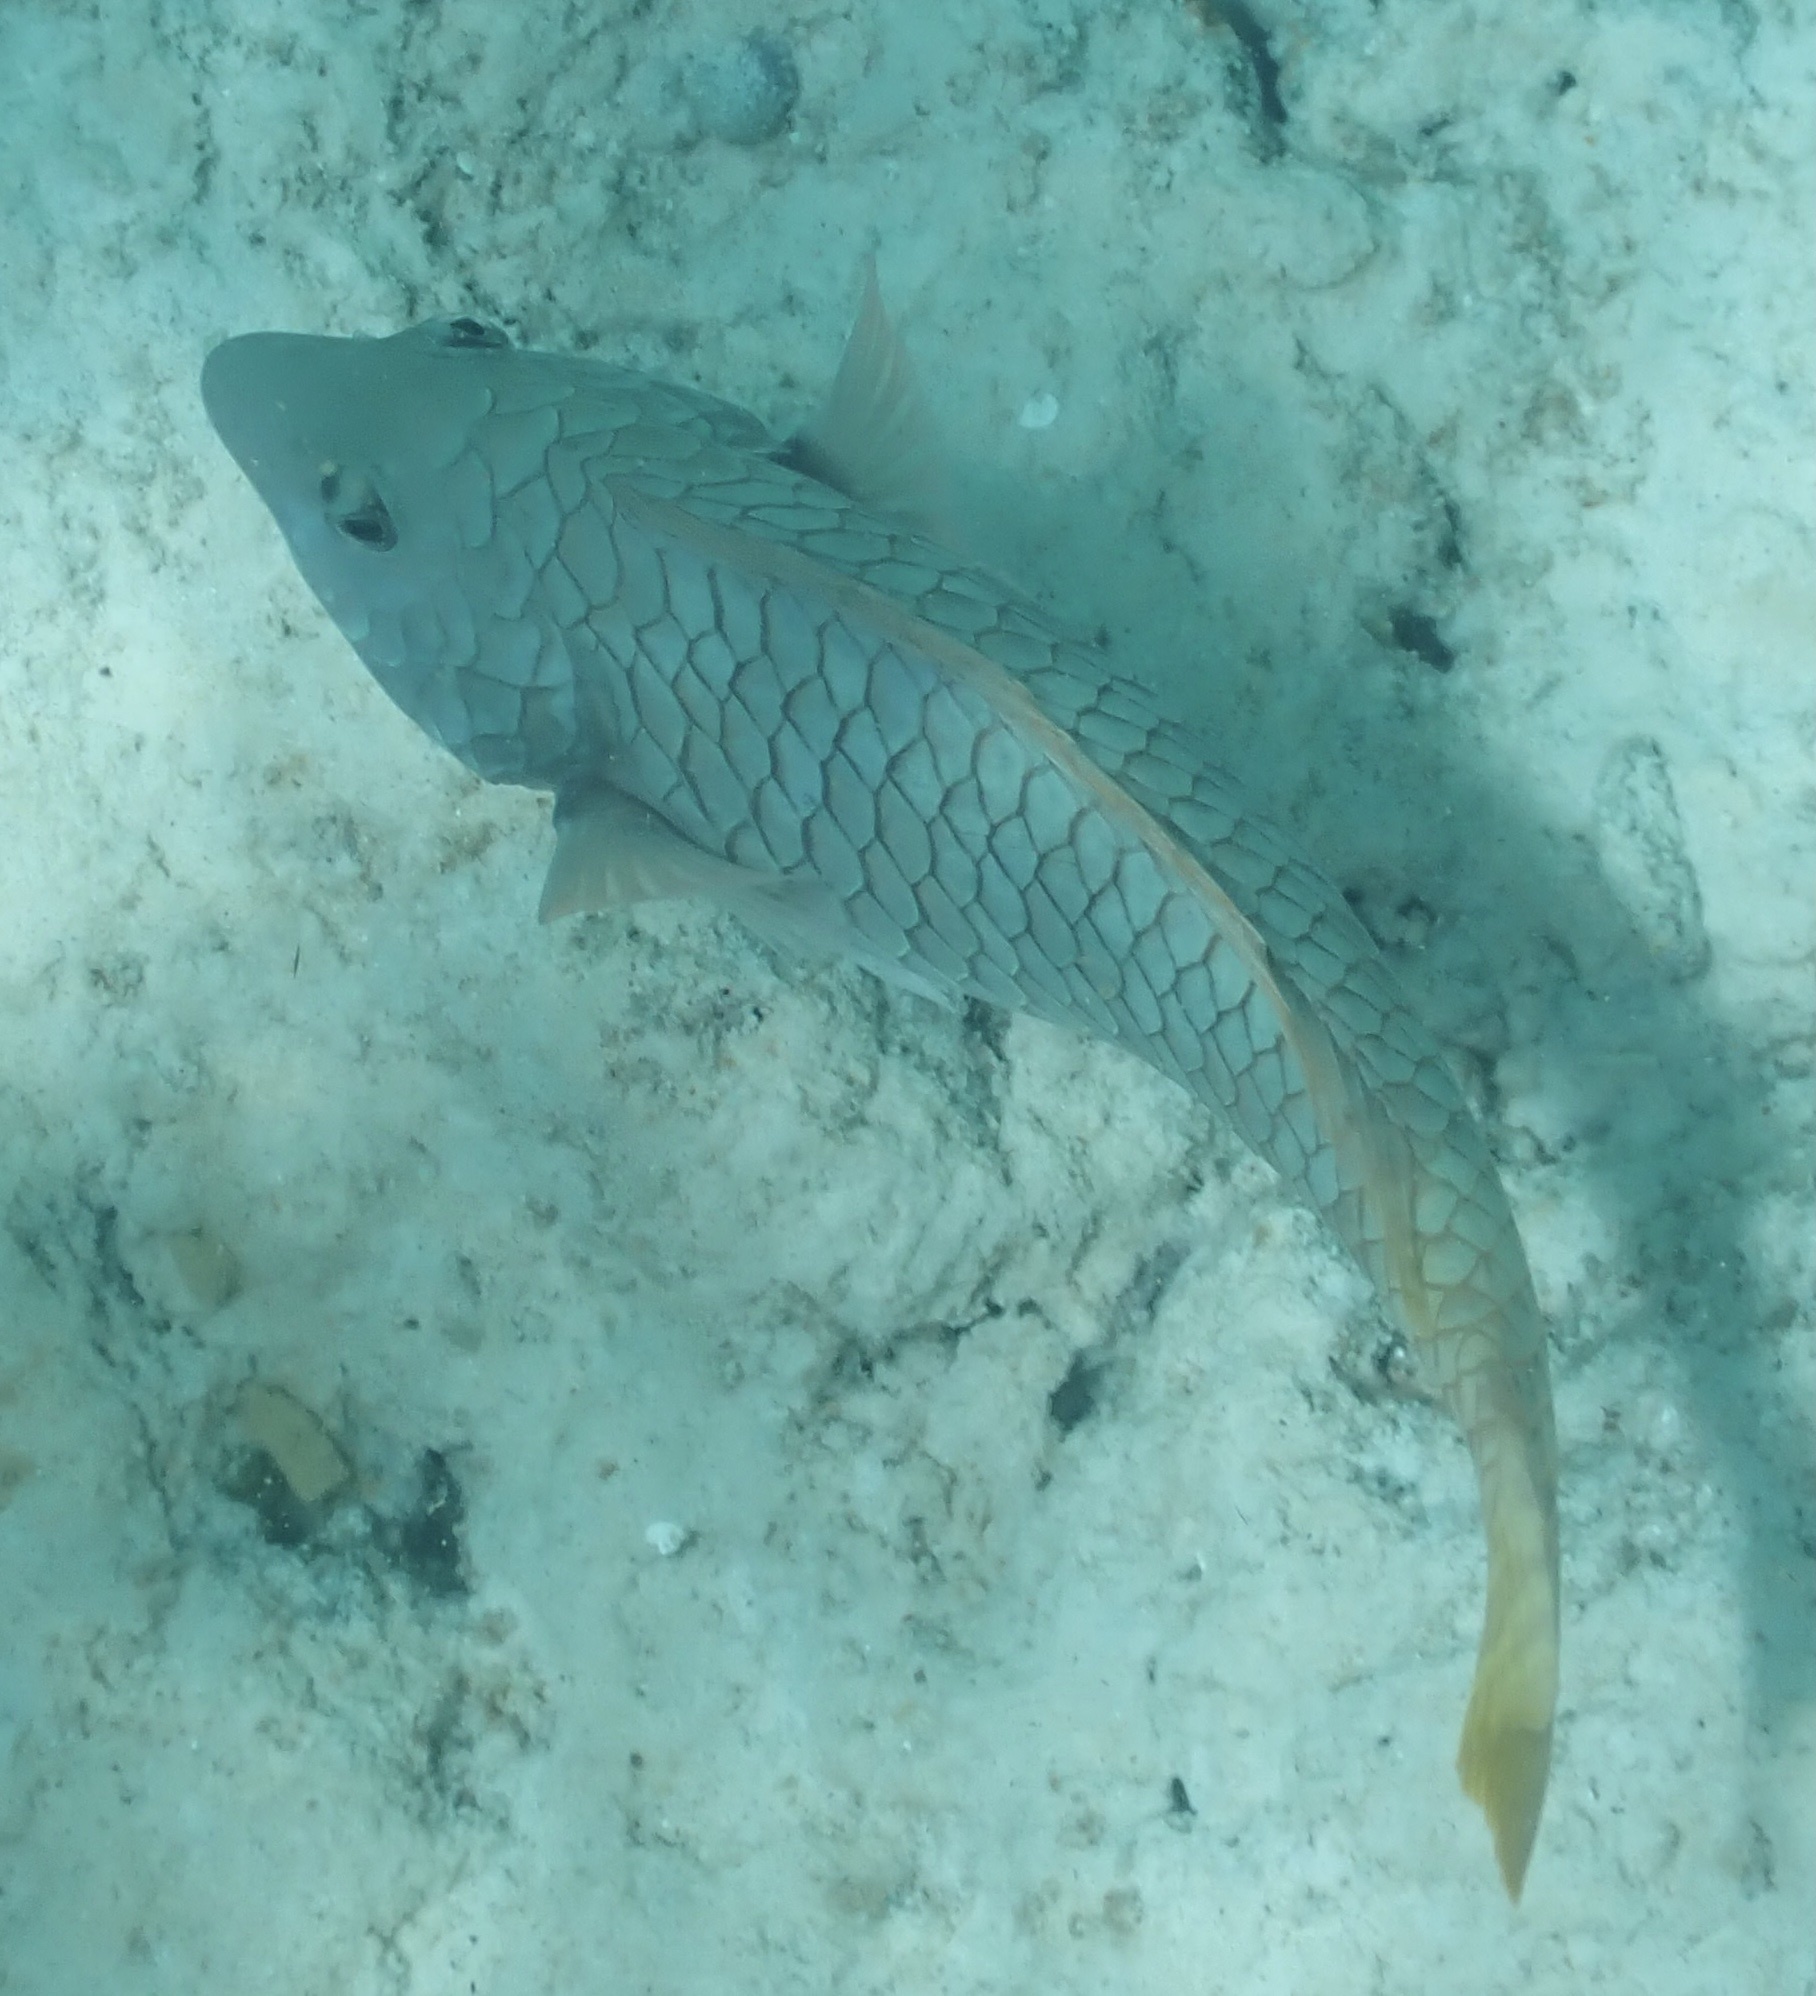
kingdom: Animalia
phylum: Chordata
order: Perciformes
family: Scaridae
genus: Sparisoma
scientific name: Sparisoma rubripinne
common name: Redfin parrotfish
